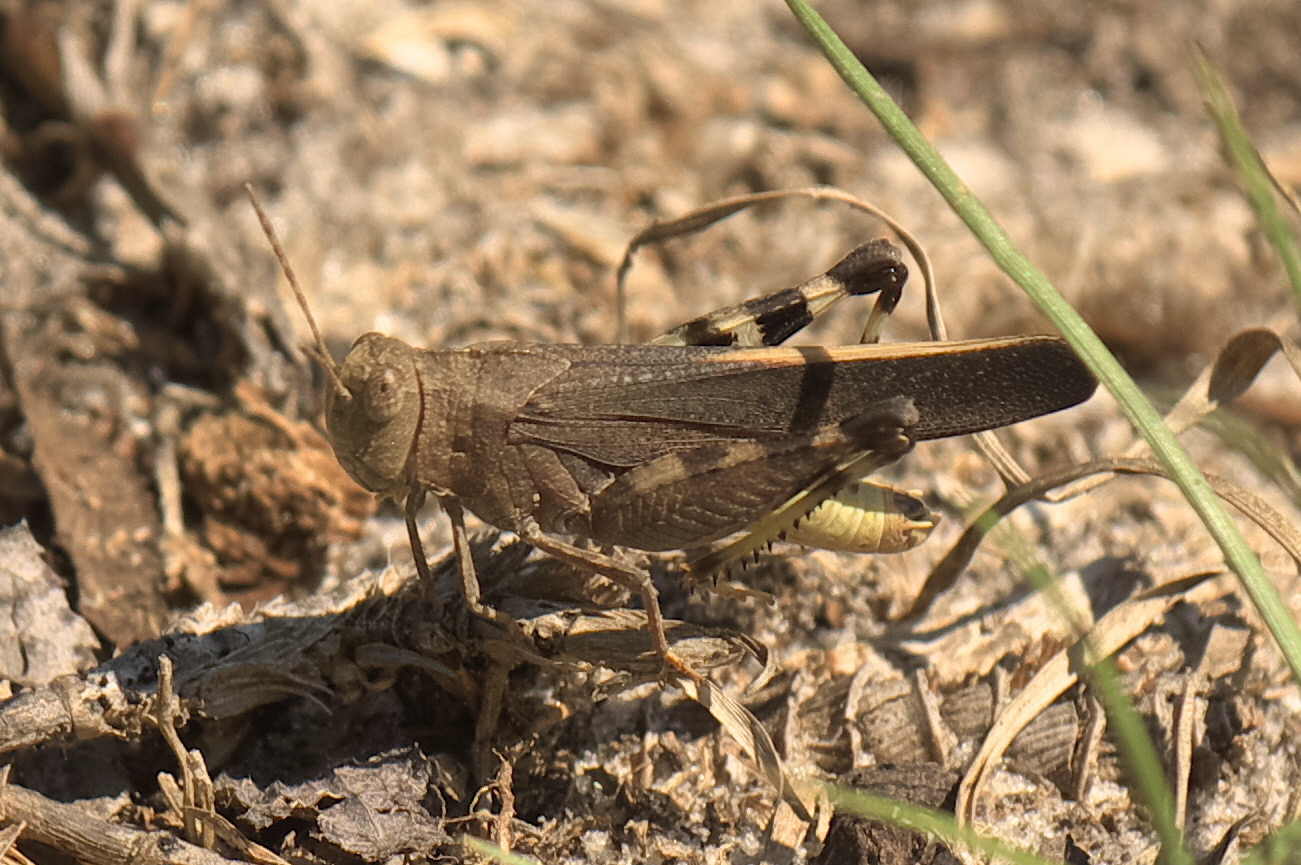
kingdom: Animalia
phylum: Arthropoda
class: Insecta
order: Orthoptera
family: Acrididae
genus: Arphia
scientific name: Arphia granulata
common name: Southern yellow-winged grasshopper
